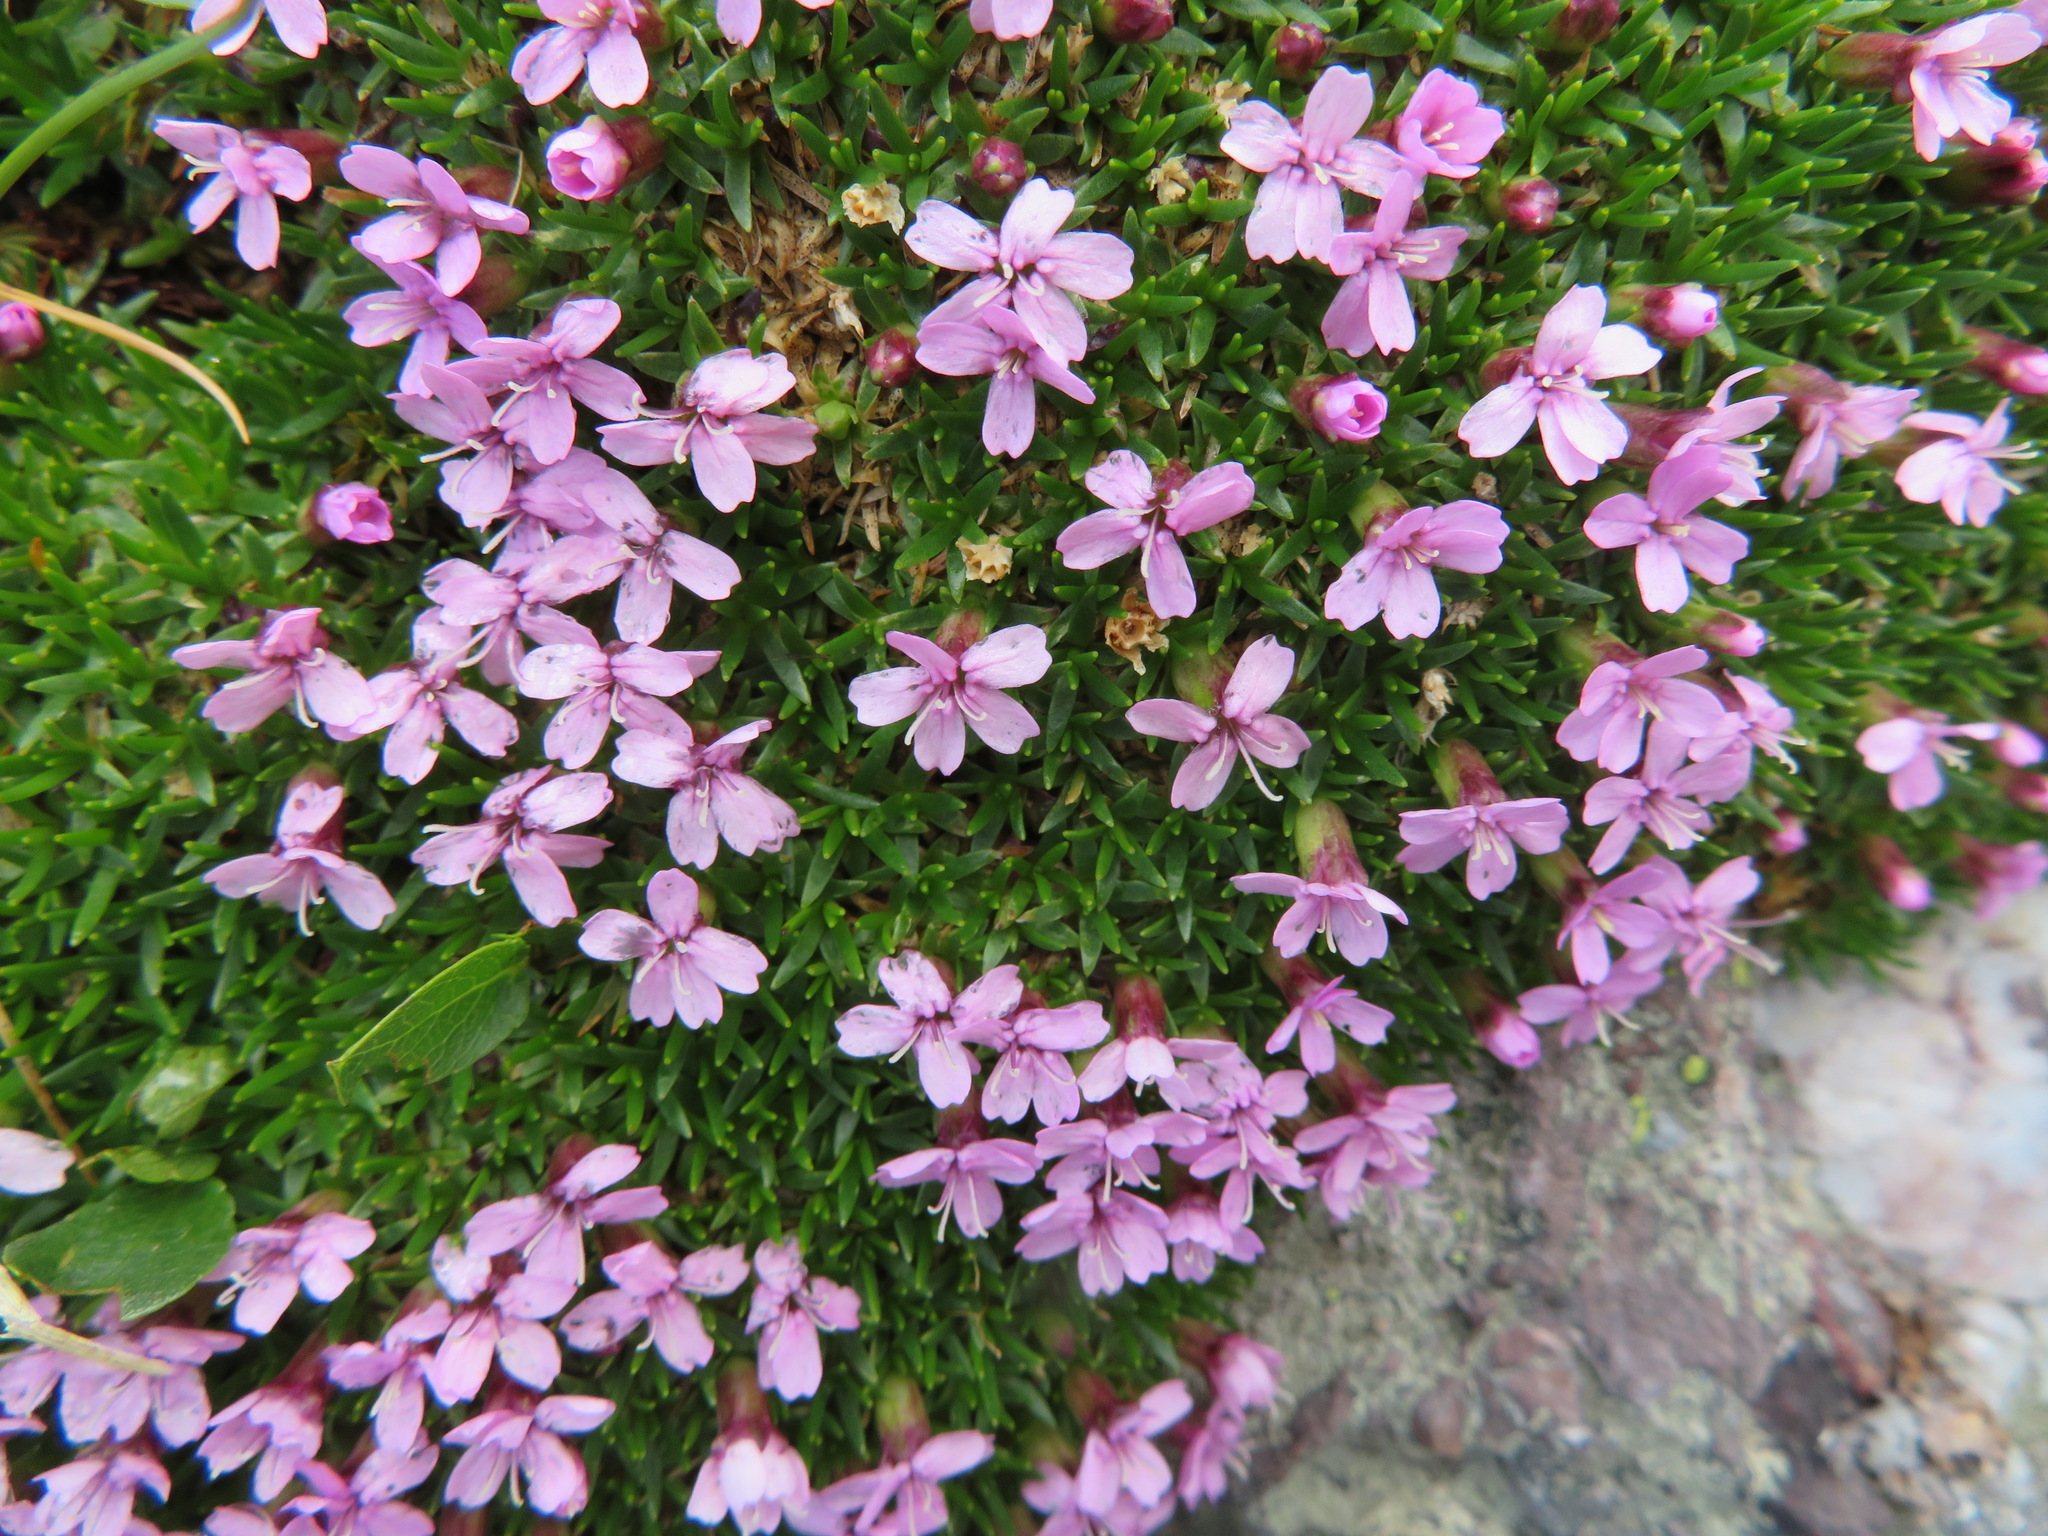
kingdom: Plantae
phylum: Tracheophyta
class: Magnoliopsida
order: Caryophyllales
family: Caryophyllaceae
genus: Silene
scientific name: Silene acaulis
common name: Moss campion
